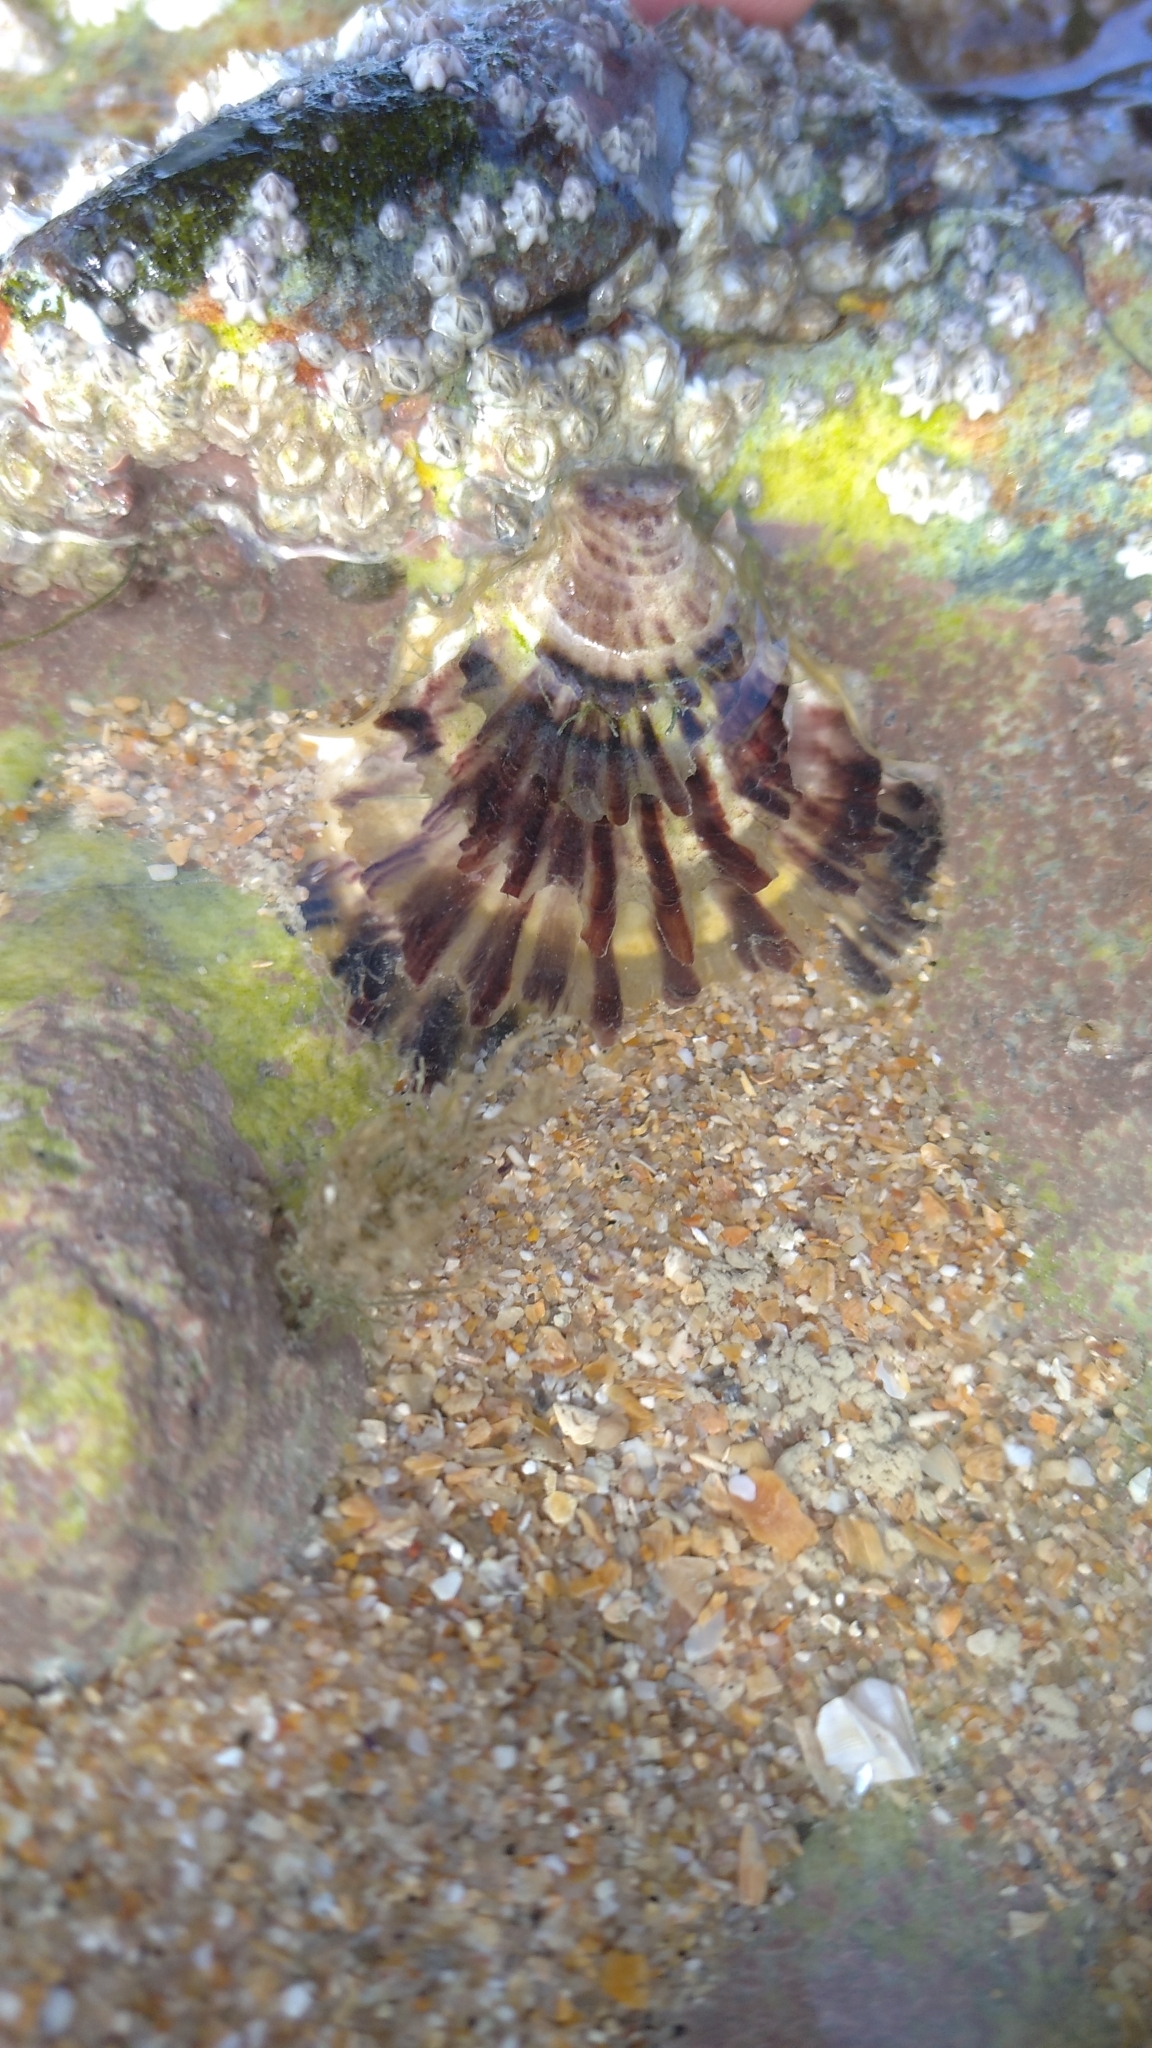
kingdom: Animalia
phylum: Mollusca
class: Bivalvia
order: Ostreida
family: Ostreidae
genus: Magallana
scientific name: Magallana gigas
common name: Pacific oyster
